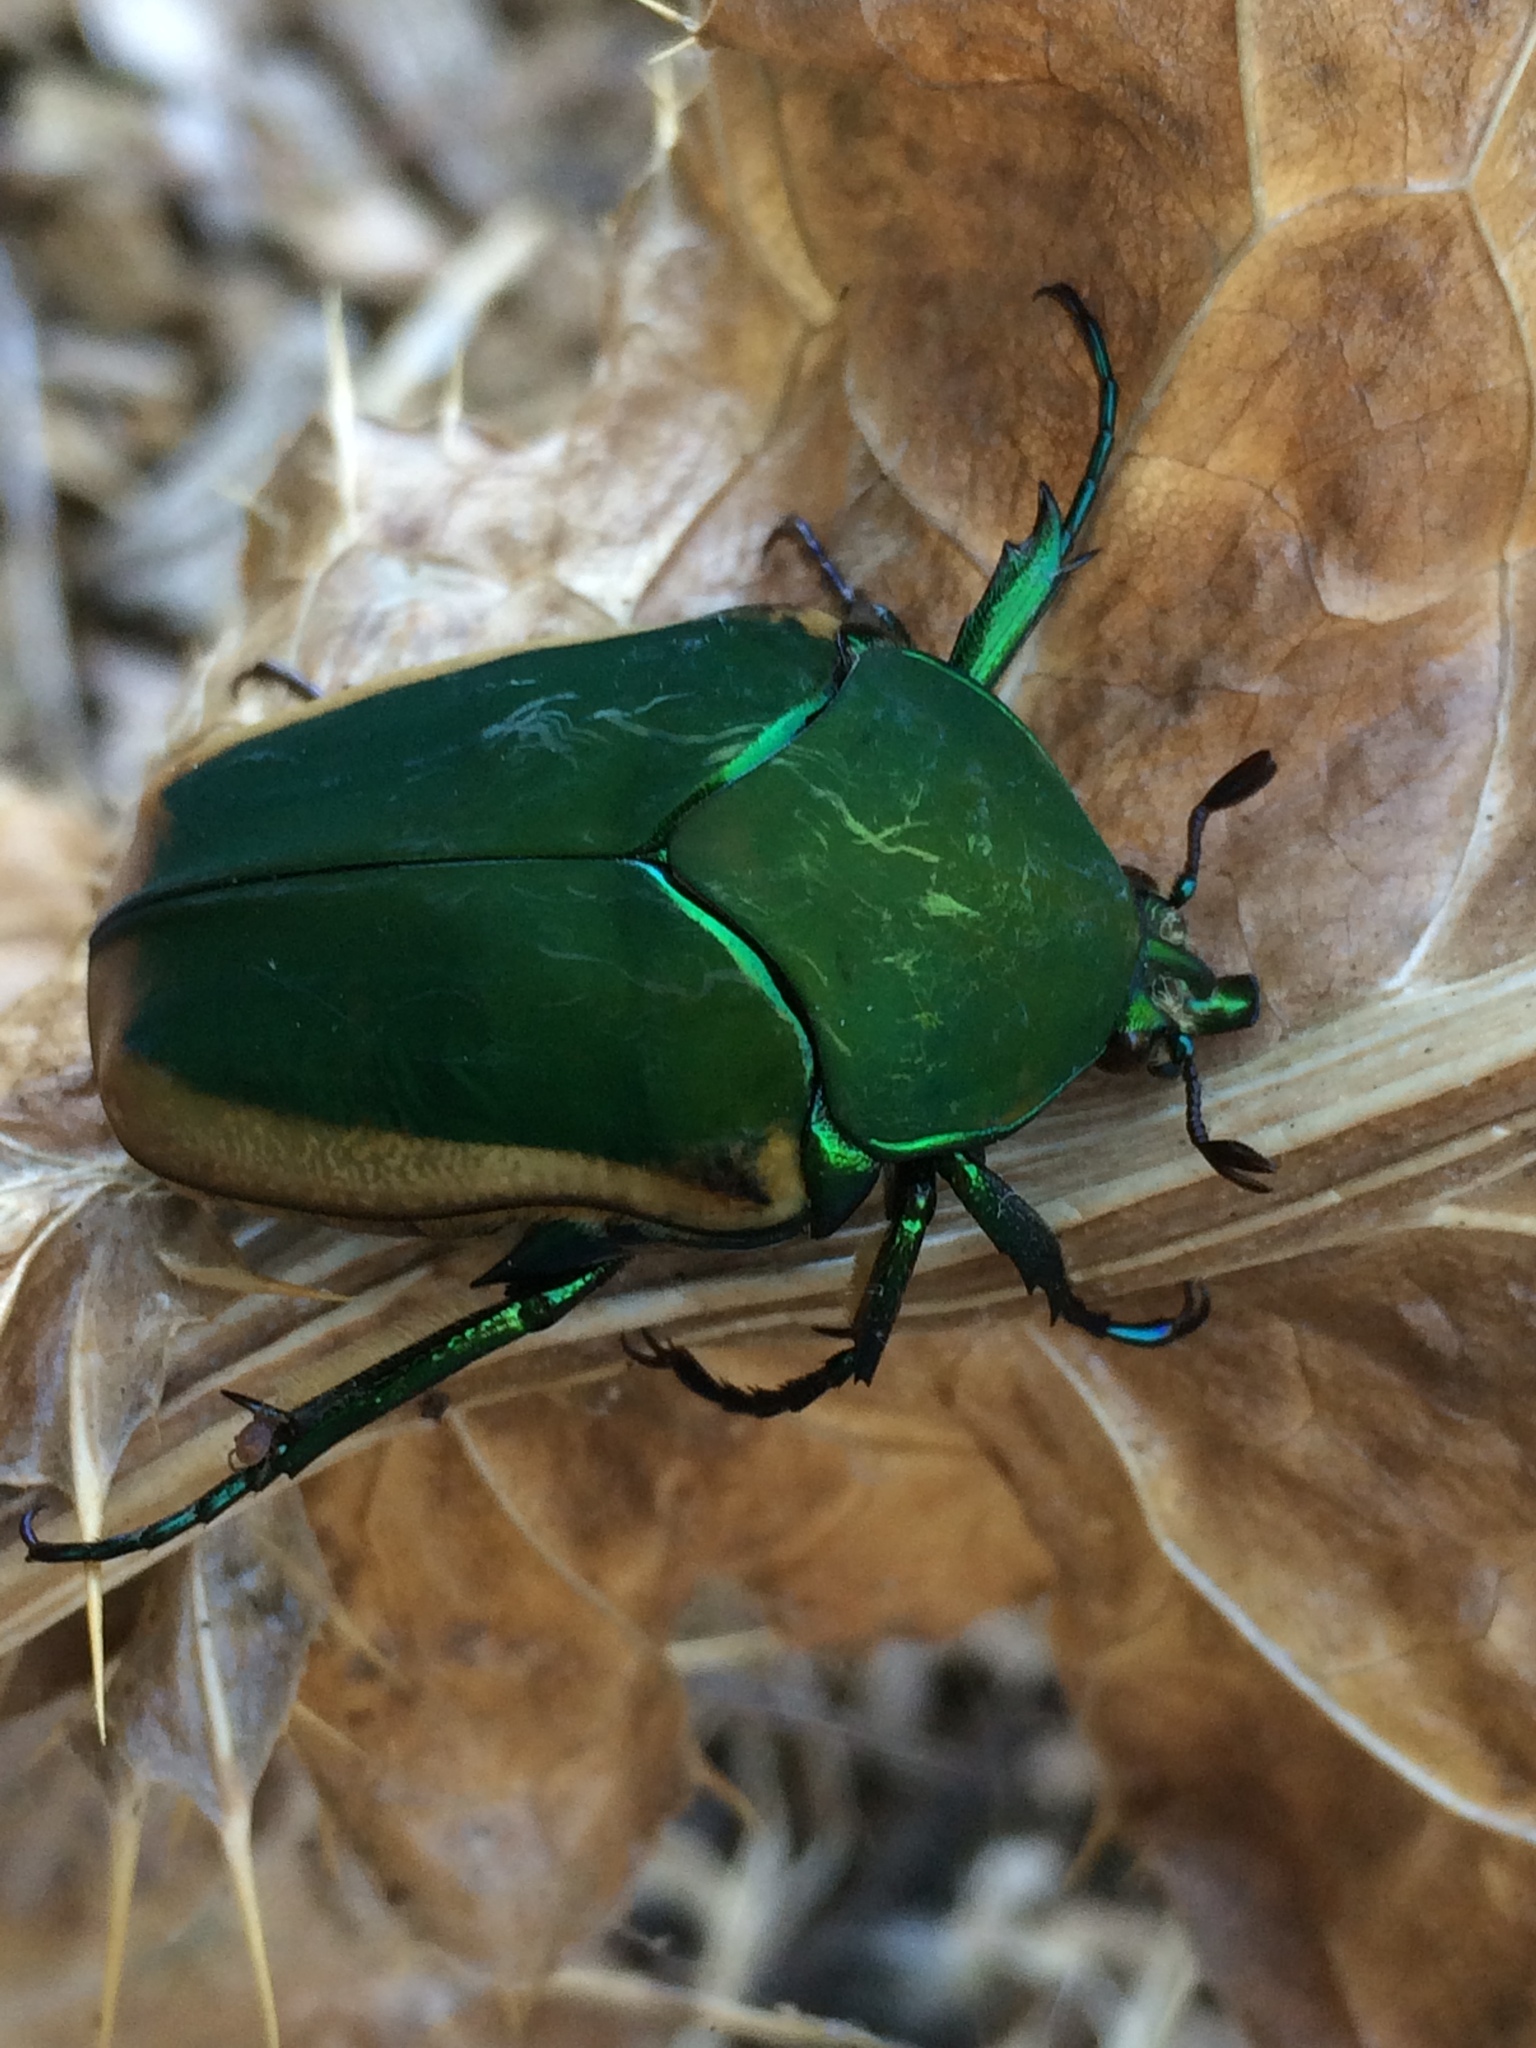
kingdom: Animalia
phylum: Arthropoda
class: Insecta
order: Coleoptera
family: Scarabaeidae
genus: Cotinis
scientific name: Cotinis mutabilis
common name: Figeater beetle
